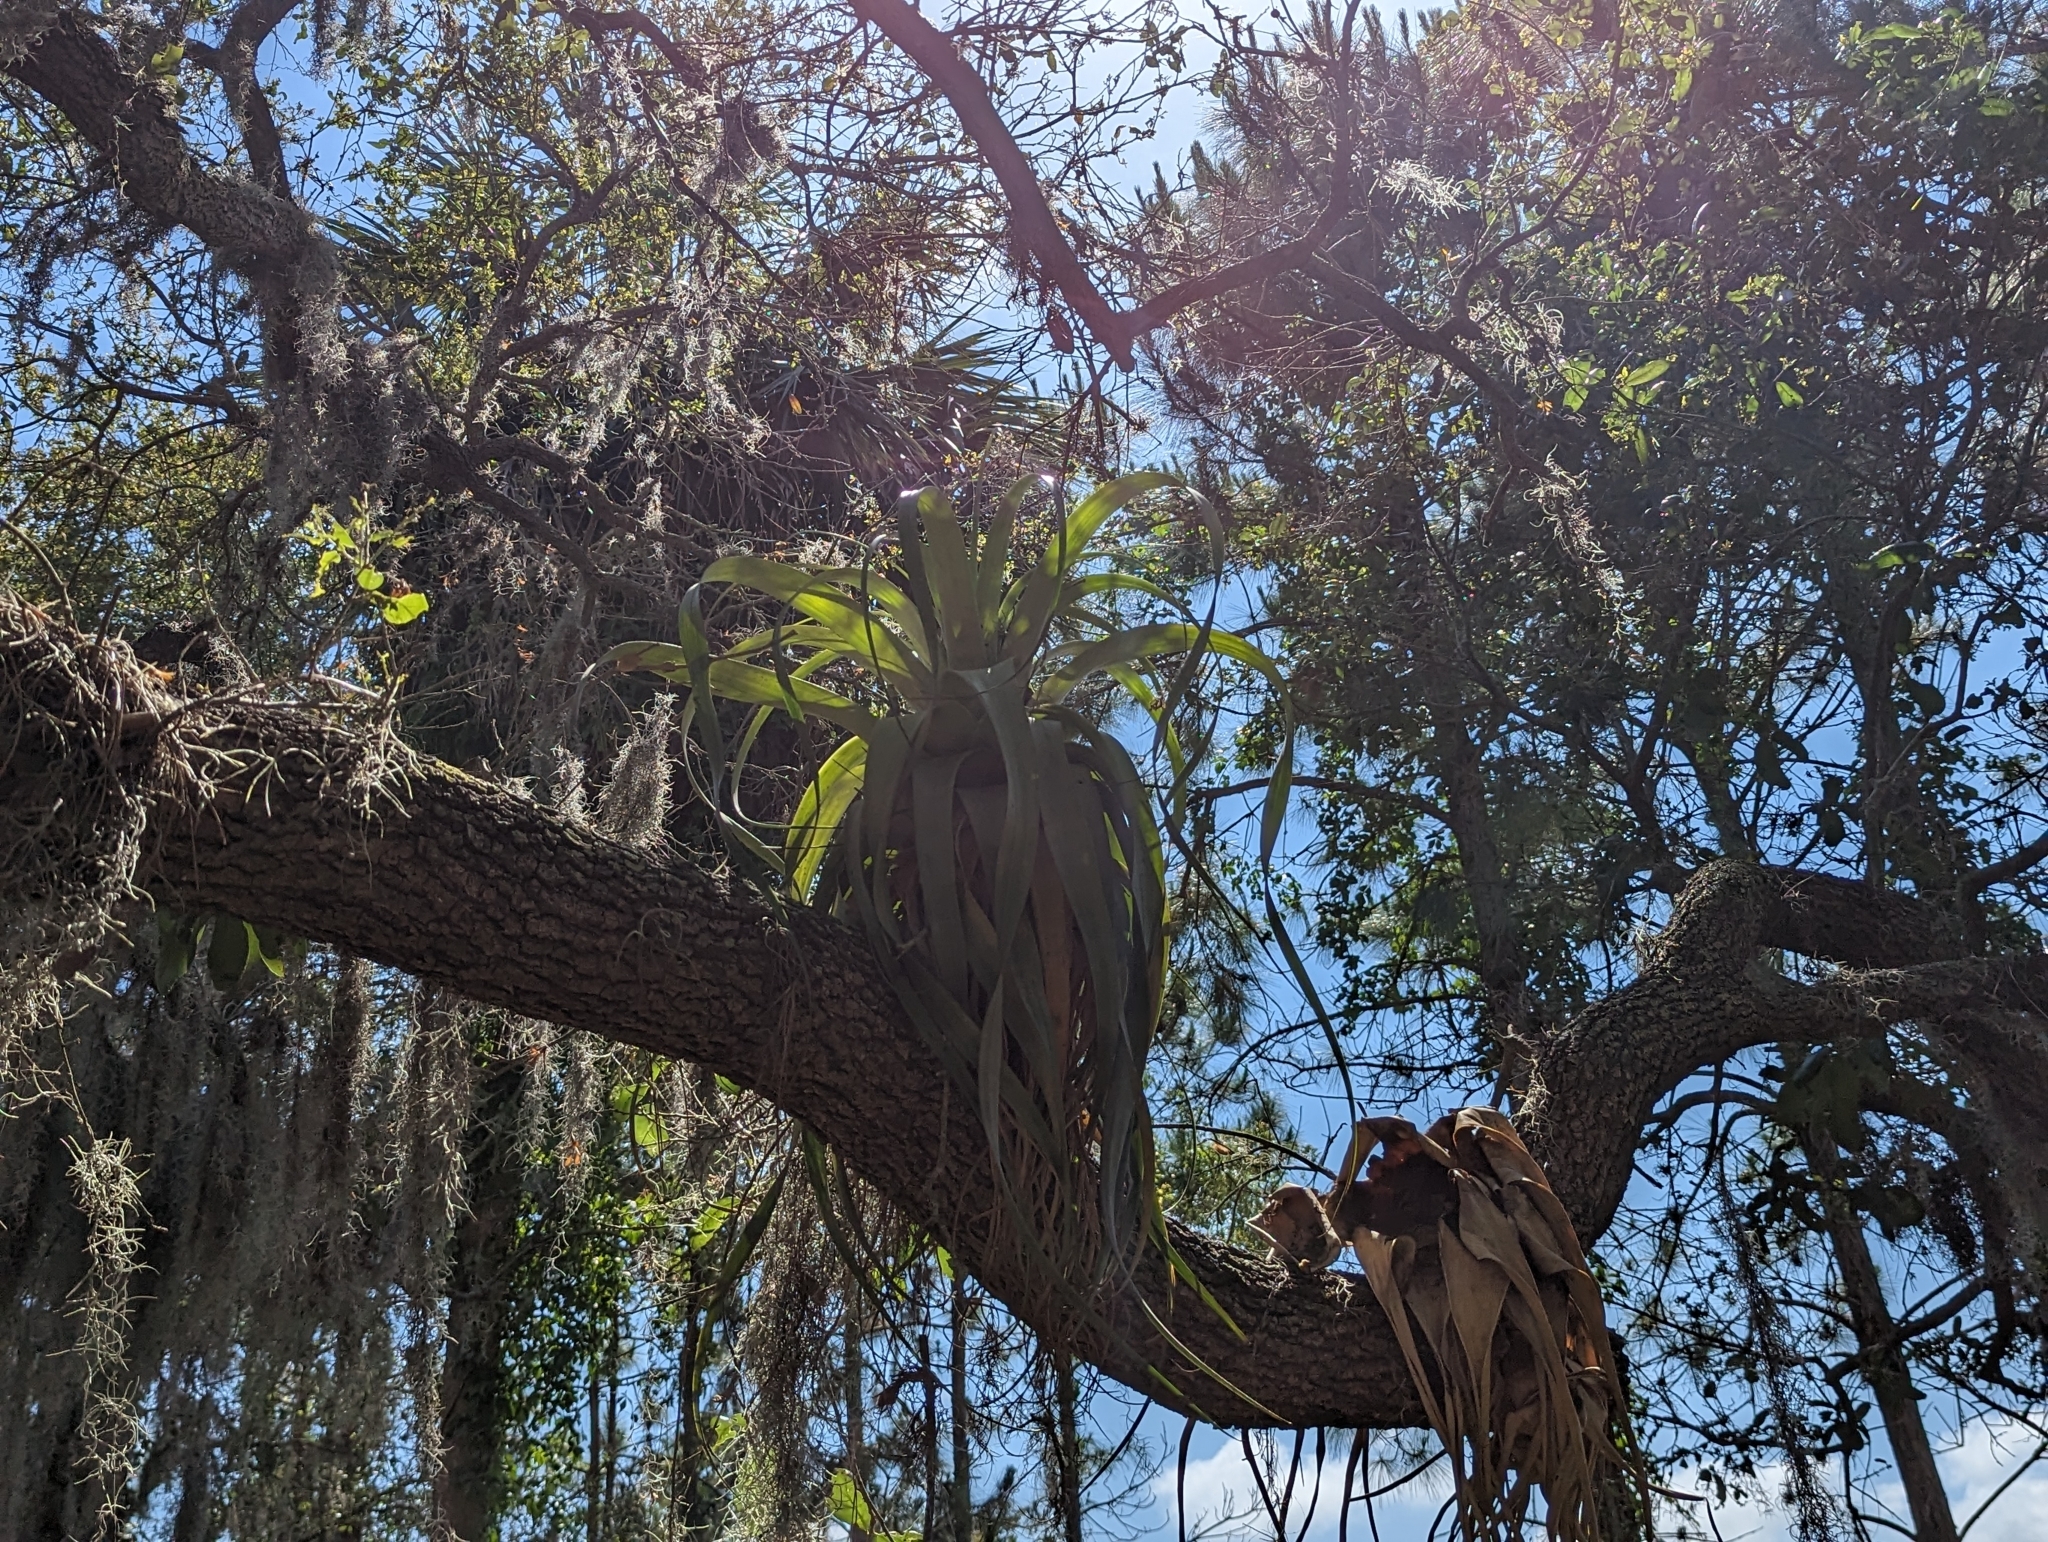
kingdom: Plantae
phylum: Tracheophyta
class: Liliopsida
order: Poales
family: Bromeliaceae
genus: Tillandsia
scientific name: Tillandsia utriculata
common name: Wild pine
